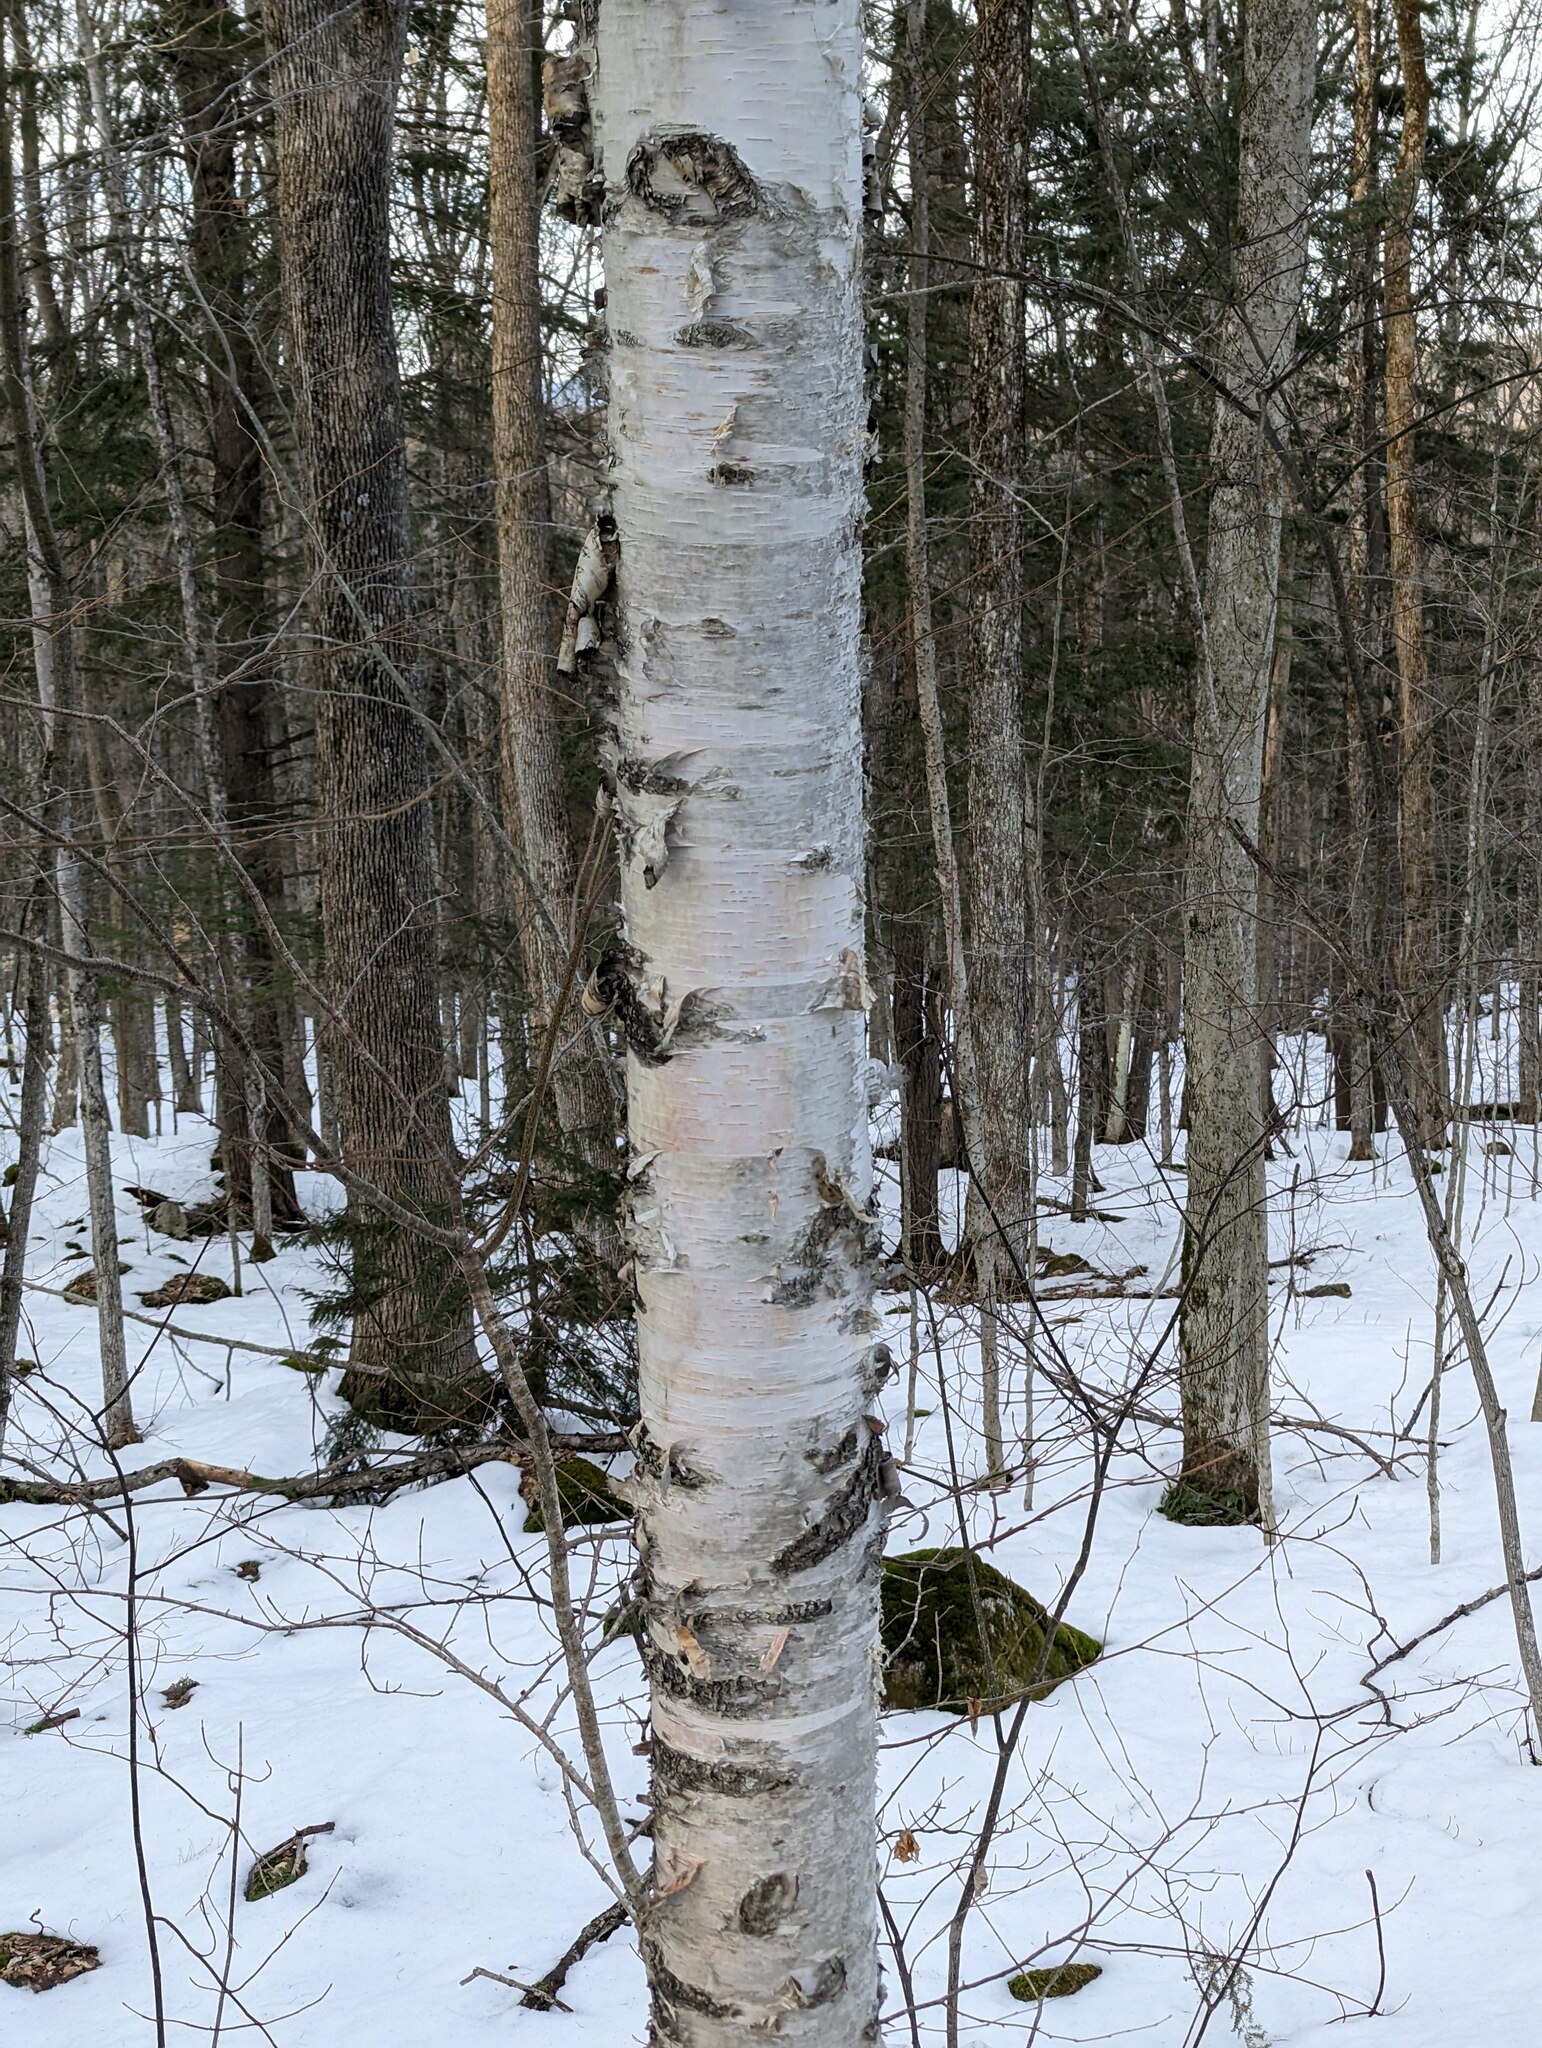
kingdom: Plantae
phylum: Tracheophyta
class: Magnoliopsida
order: Fagales
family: Betulaceae
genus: Betula
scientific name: Betula papyrifera
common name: Paper birch
